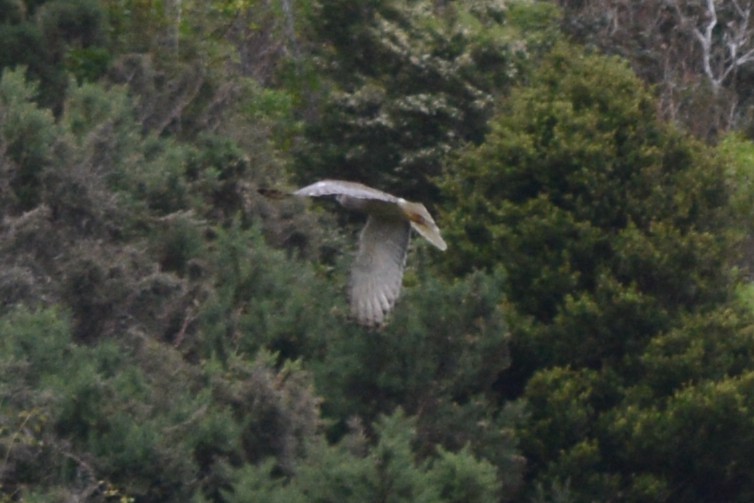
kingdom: Animalia
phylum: Chordata
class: Aves
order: Accipitriformes
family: Accipitridae
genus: Circus
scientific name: Circus approximans
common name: Swamp harrier
